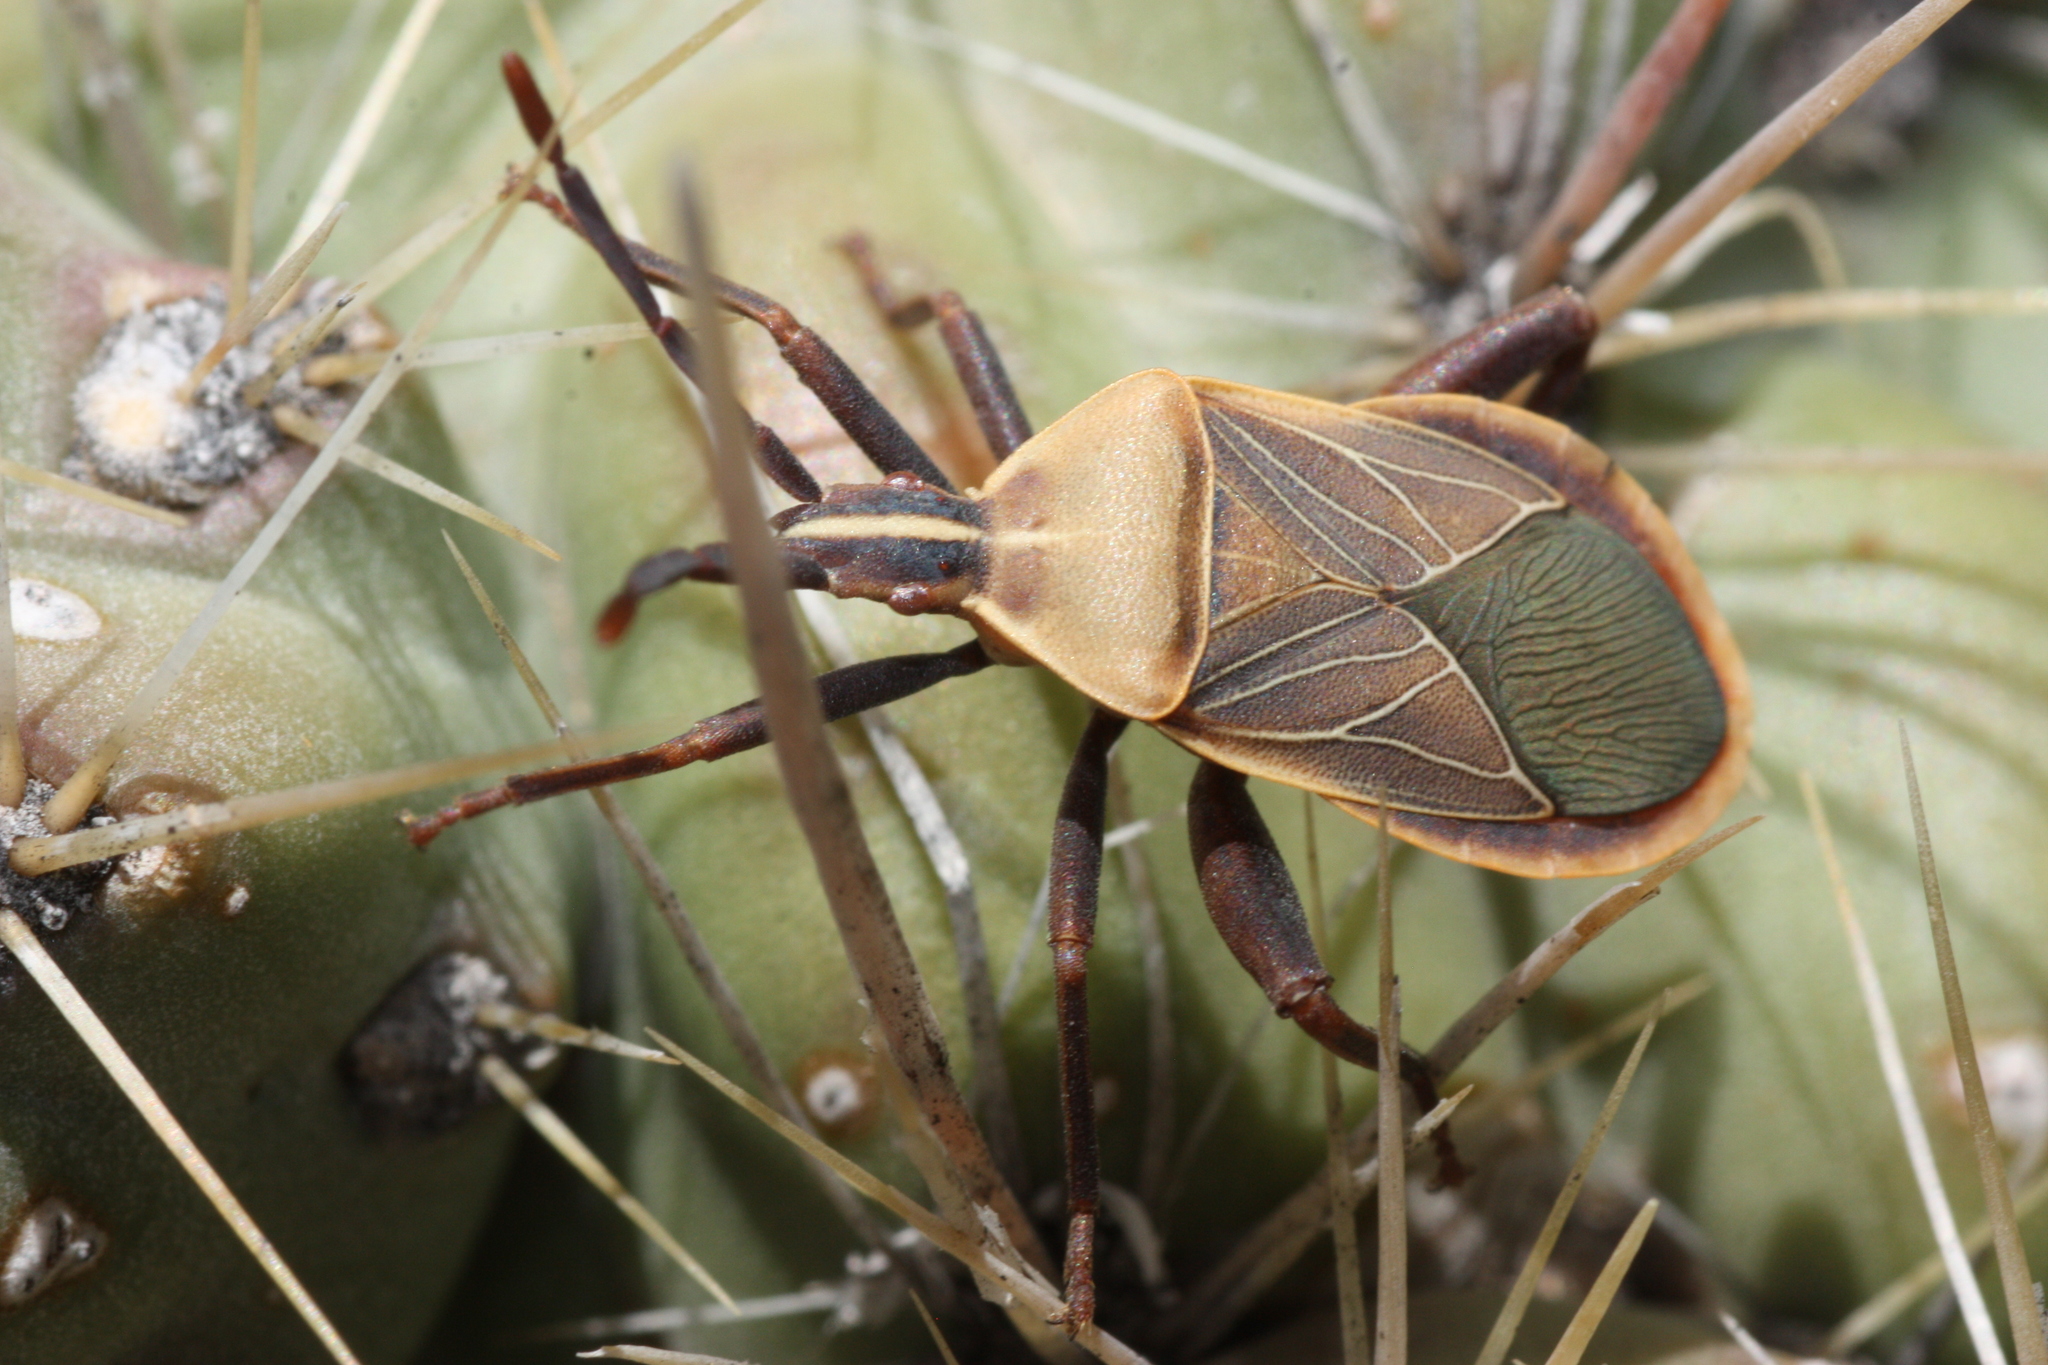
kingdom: Animalia
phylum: Arthropoda
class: Insecta
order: Hemiptera
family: Coreidae
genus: Chelinidea
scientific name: Chelinidea vittiger
